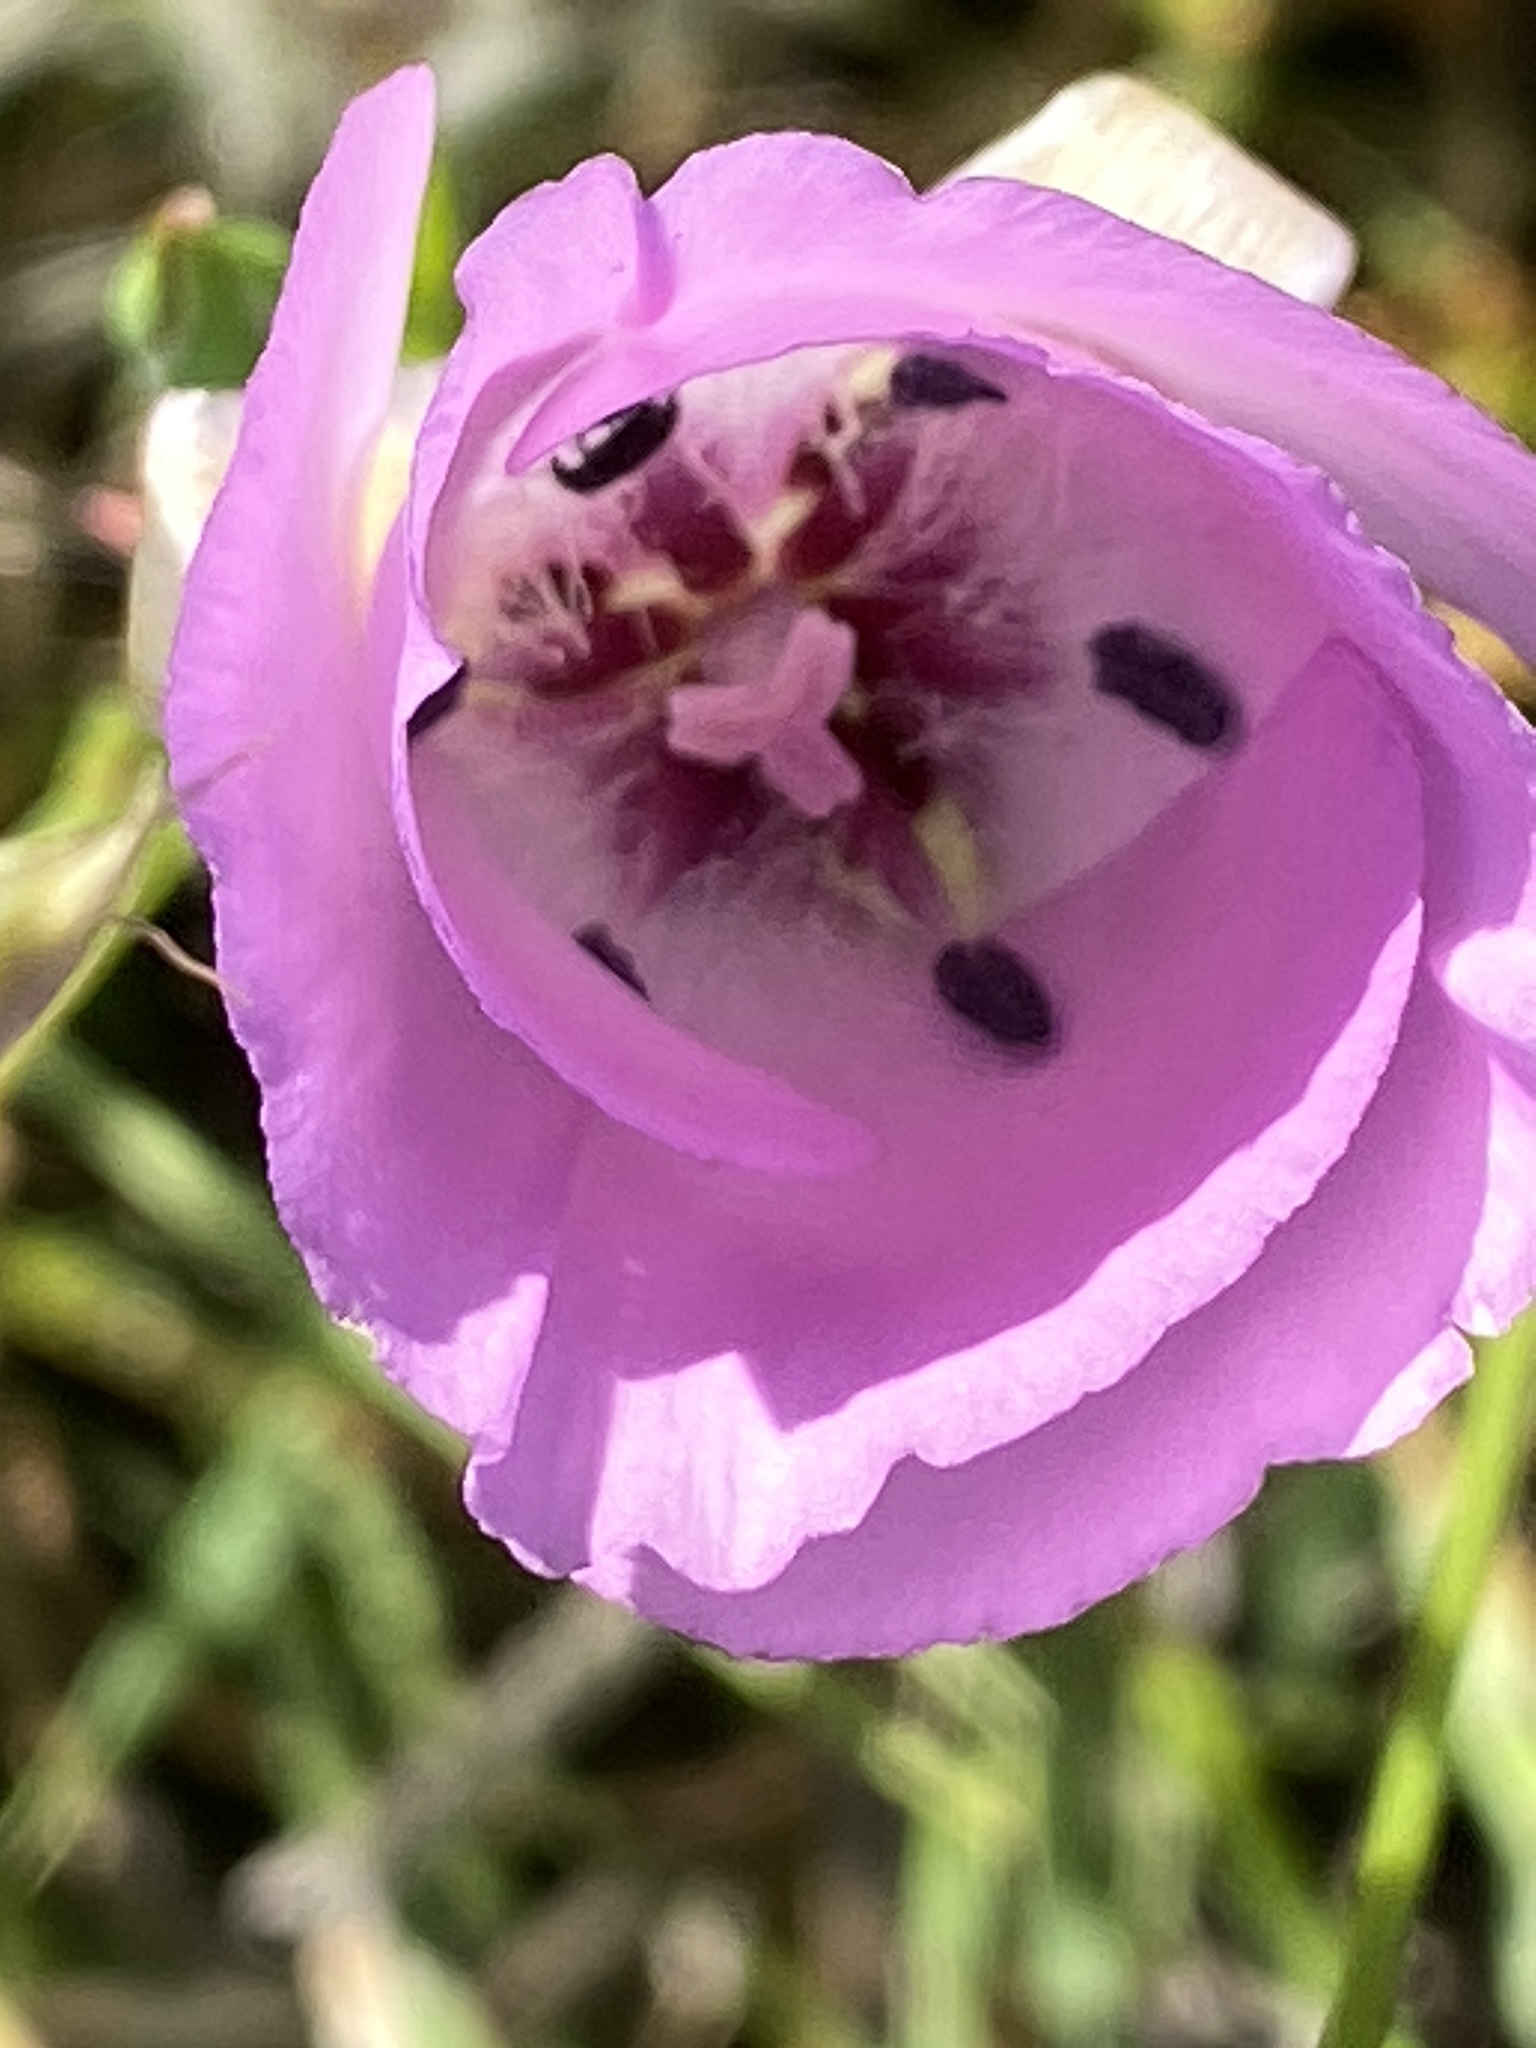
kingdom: Plantae
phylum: Tracheophyta
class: Liliopsida
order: Liliales
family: Liliaceae
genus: Calochortus
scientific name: Calochortus splendens
